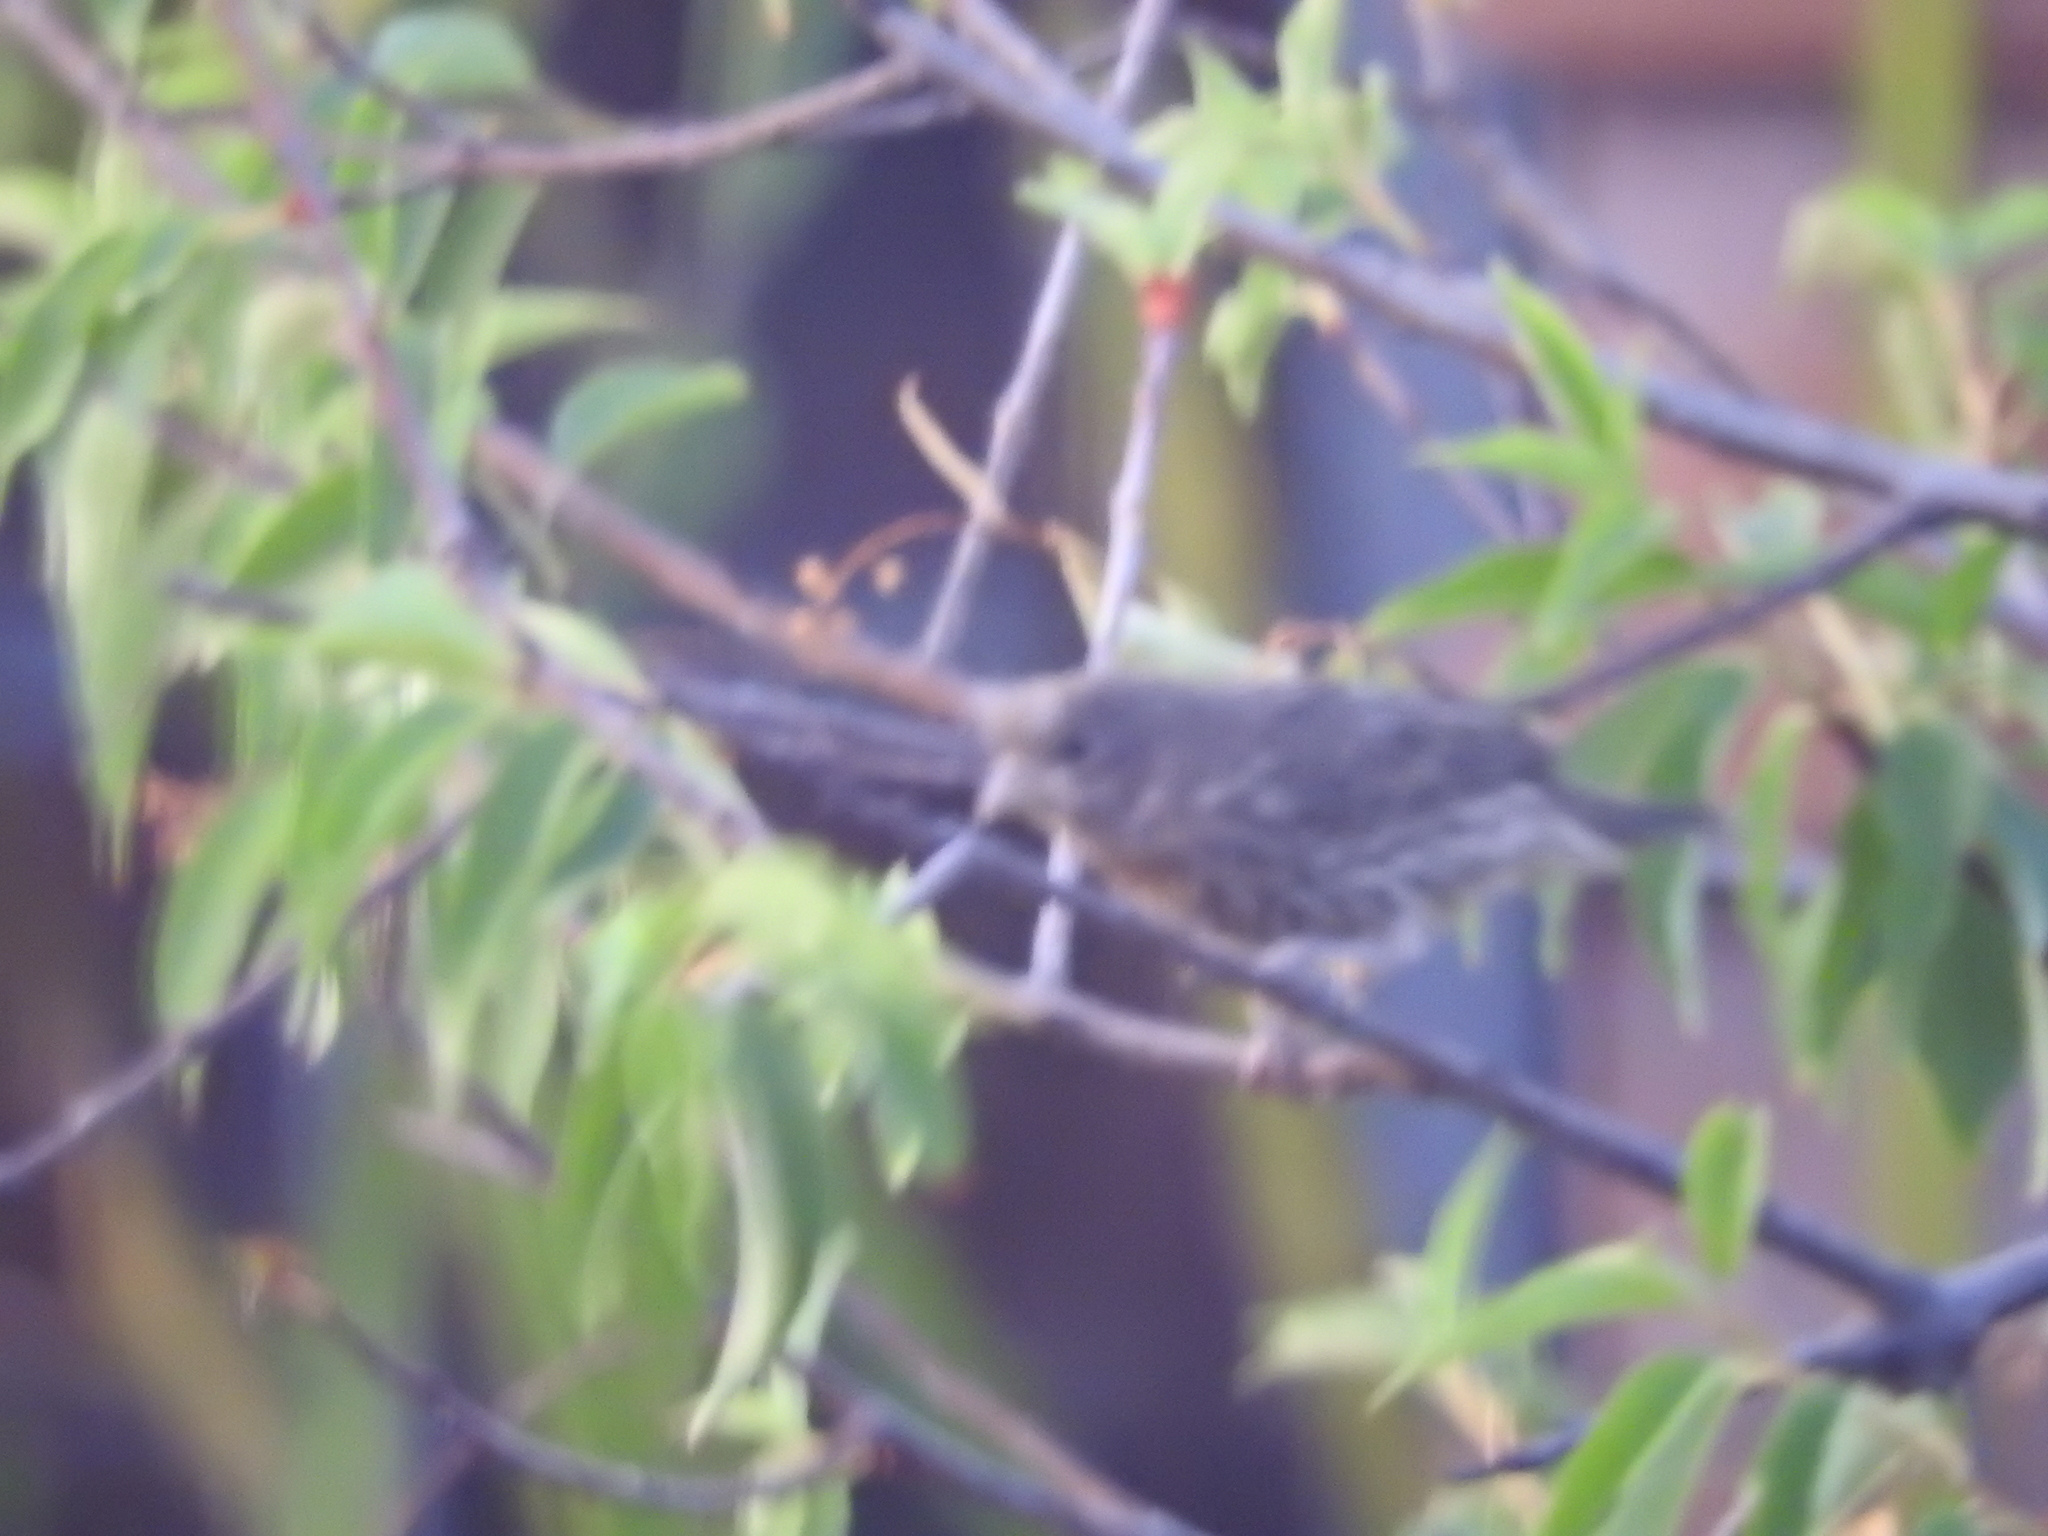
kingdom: Animalia
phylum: Chordata
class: Aves
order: Passeriformes
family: Fringillidae
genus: Haemorhous
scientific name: Haemorhous mexicanus
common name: House finch
